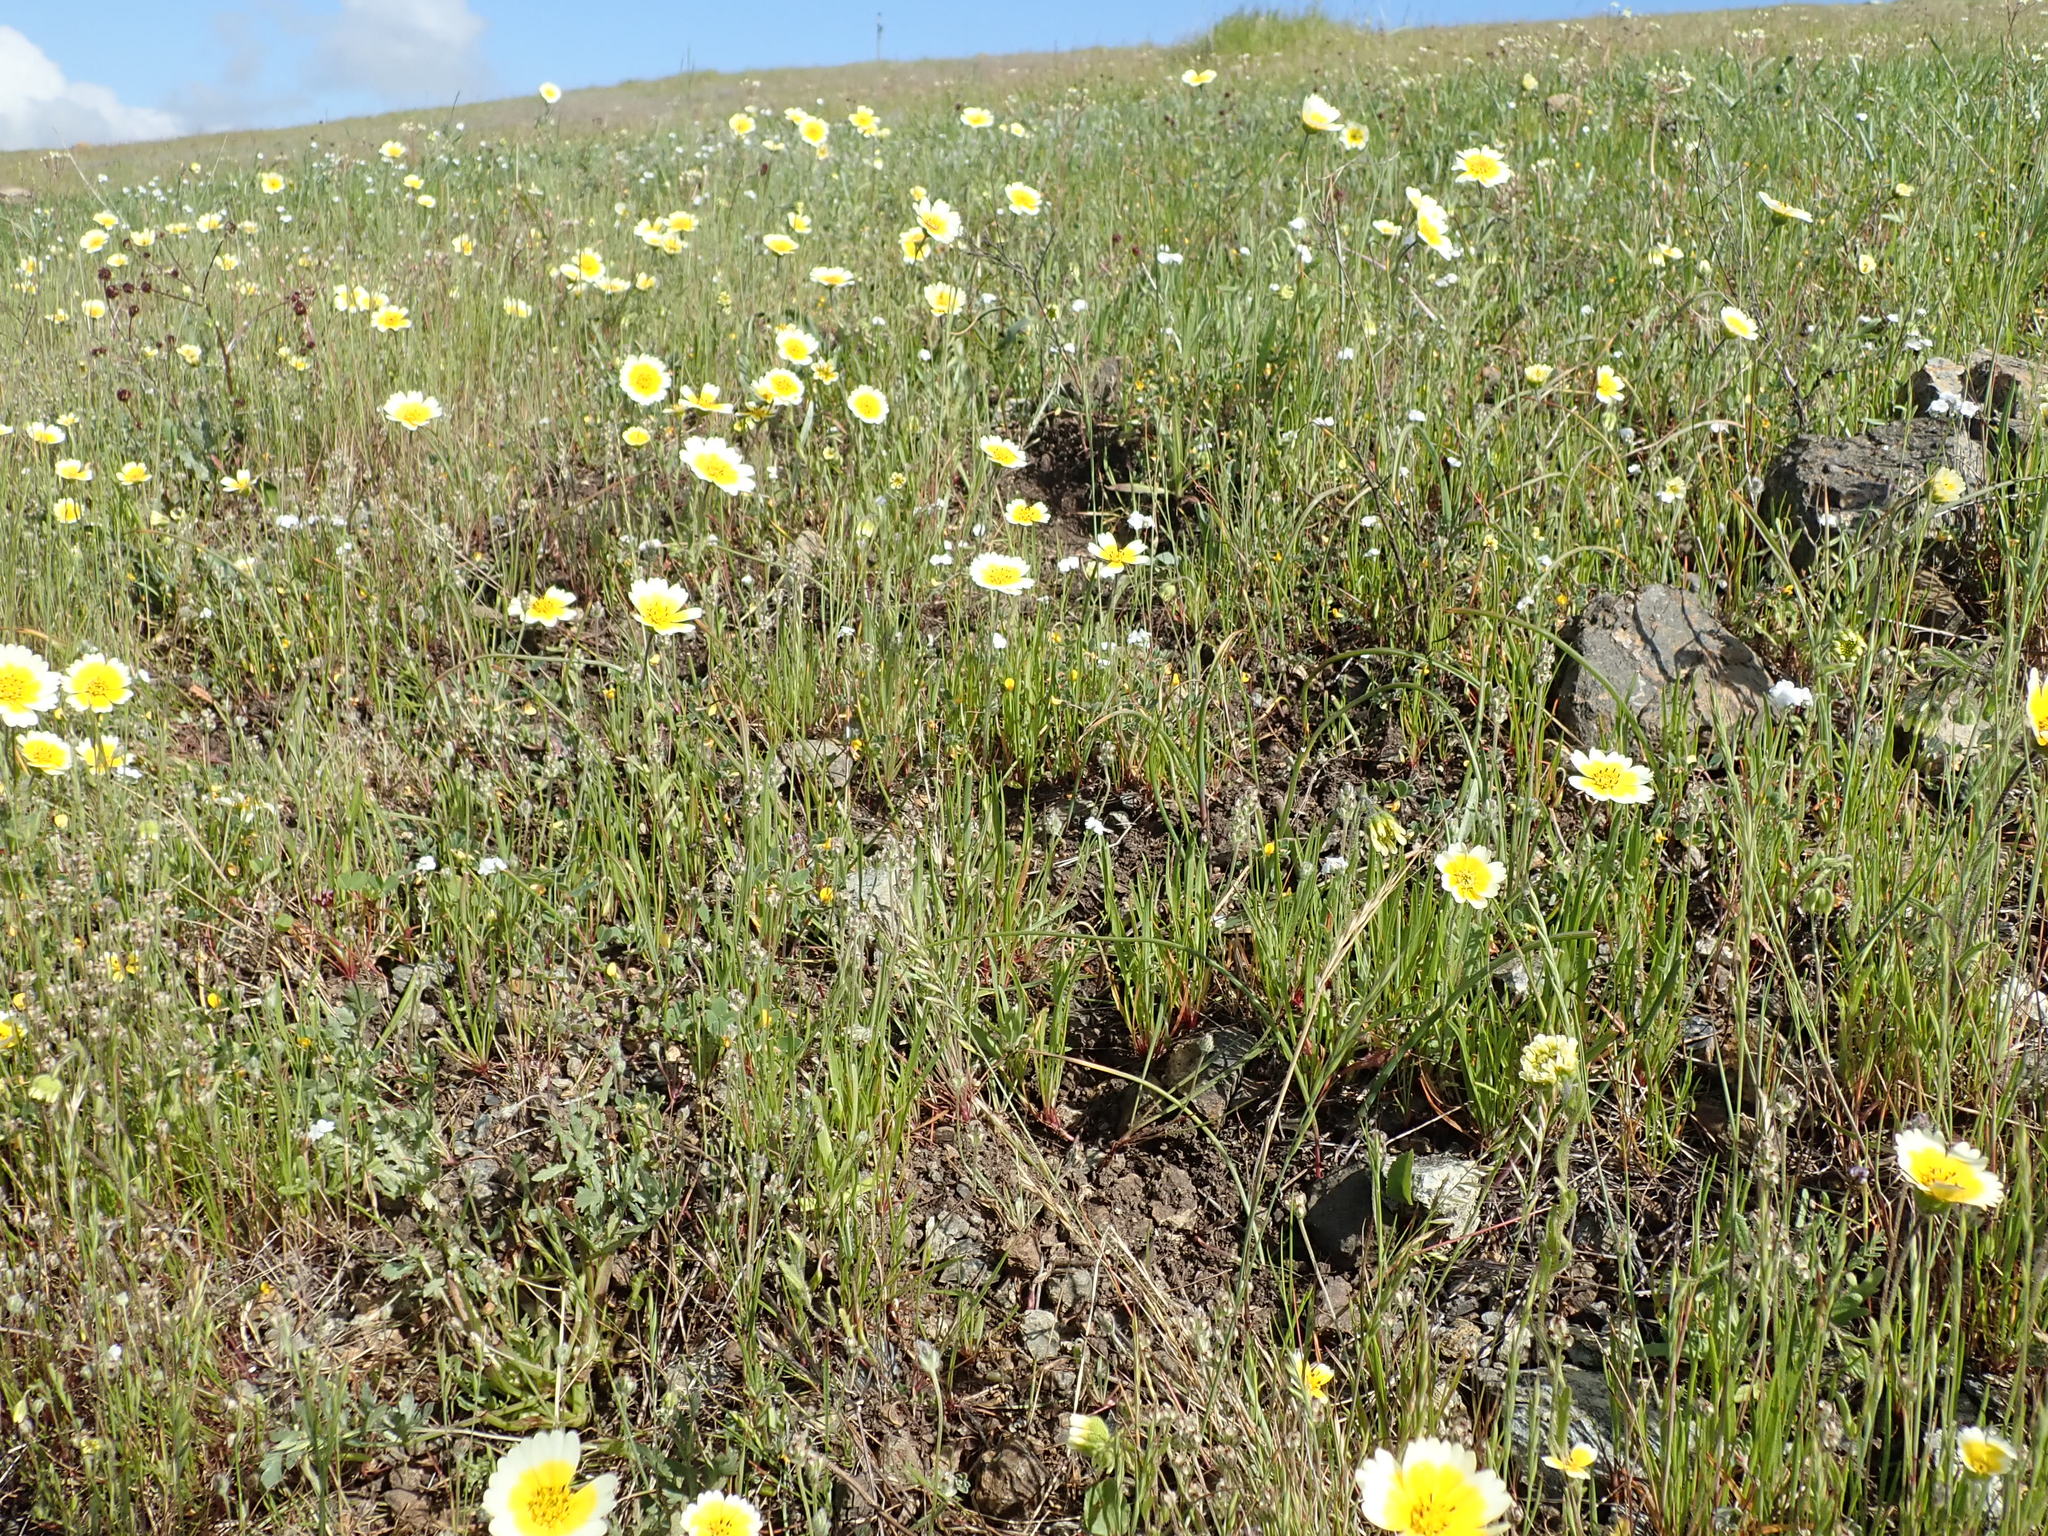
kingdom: Plantae
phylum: Tracheophyta
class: Magnoliopsida
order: Asterales
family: Asteraceae
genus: Layia
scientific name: Layia gaillardioides
